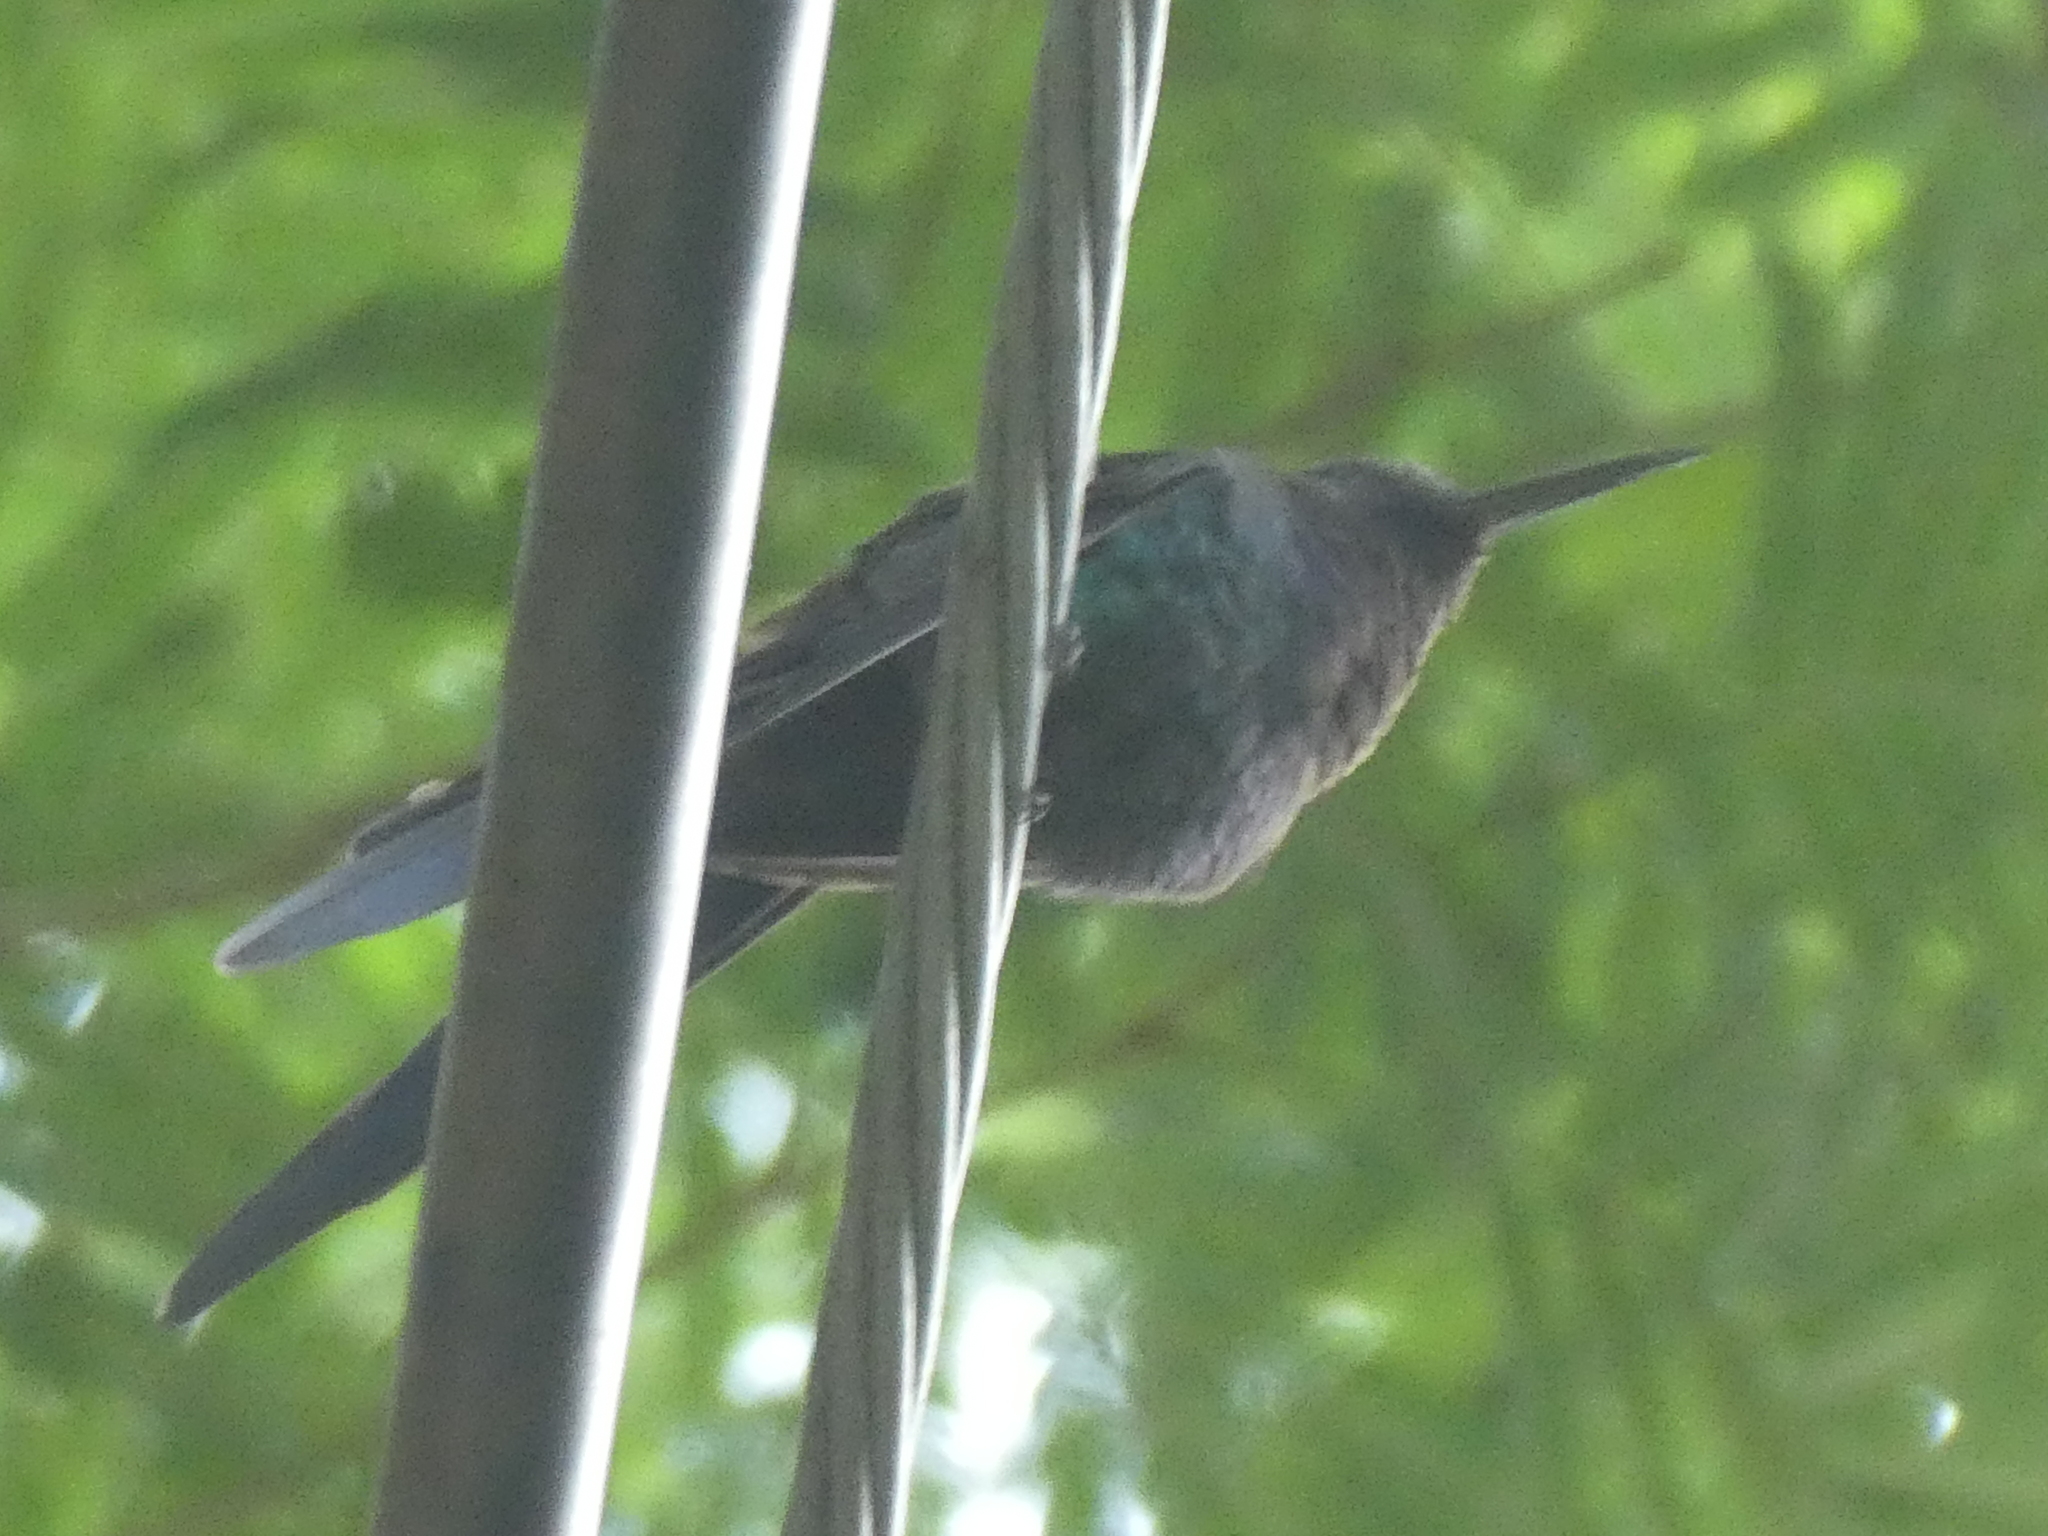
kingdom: Animalia
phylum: Chordata
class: Aves
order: Apodiformes
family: Trochilidae
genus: Eupetomena
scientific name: Eupetomena macroura
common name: Swallow-tailed hummingbird
